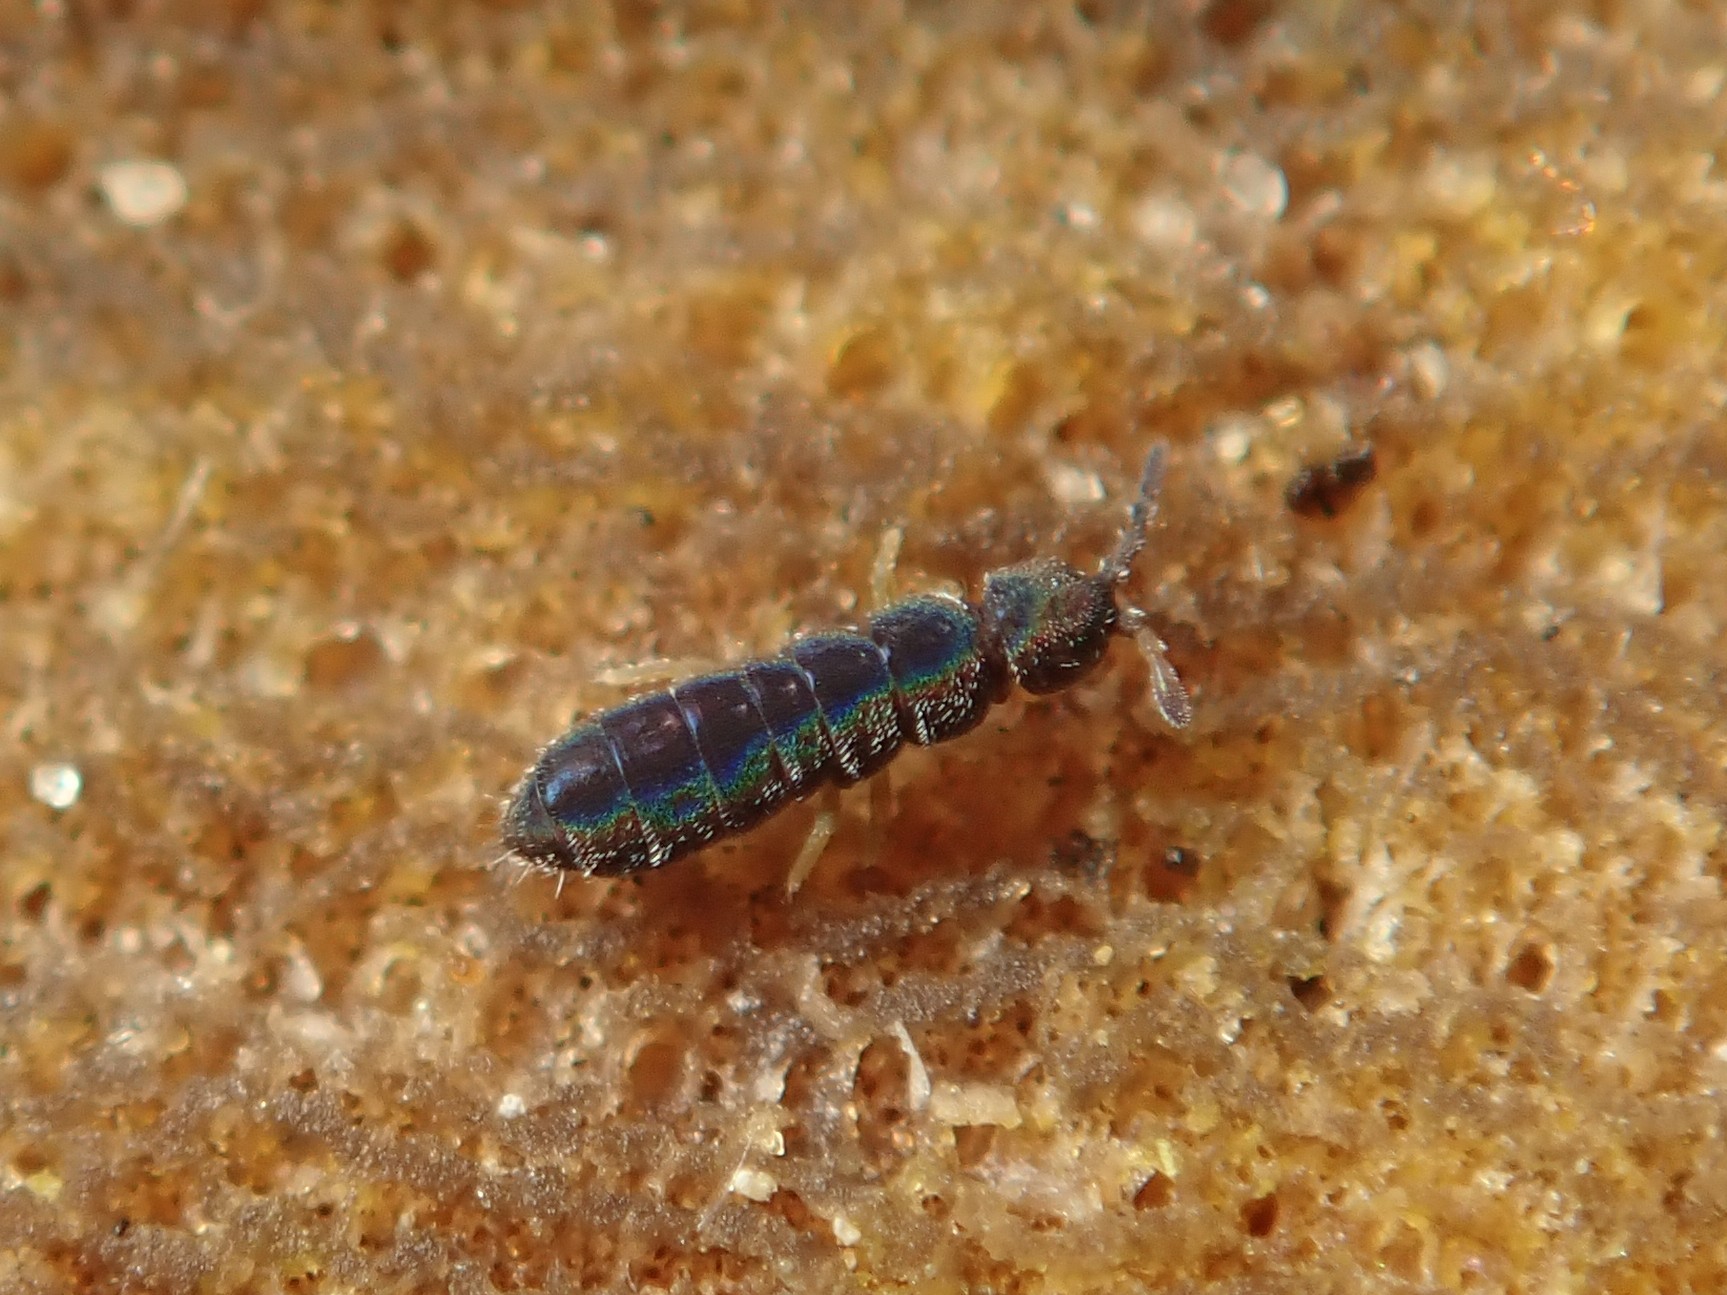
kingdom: Animalia
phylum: Arthropoda
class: Collembola
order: Entomobryomorpha
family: Isotomidae
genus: Vertagopus
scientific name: Vertagopus asiaticus
